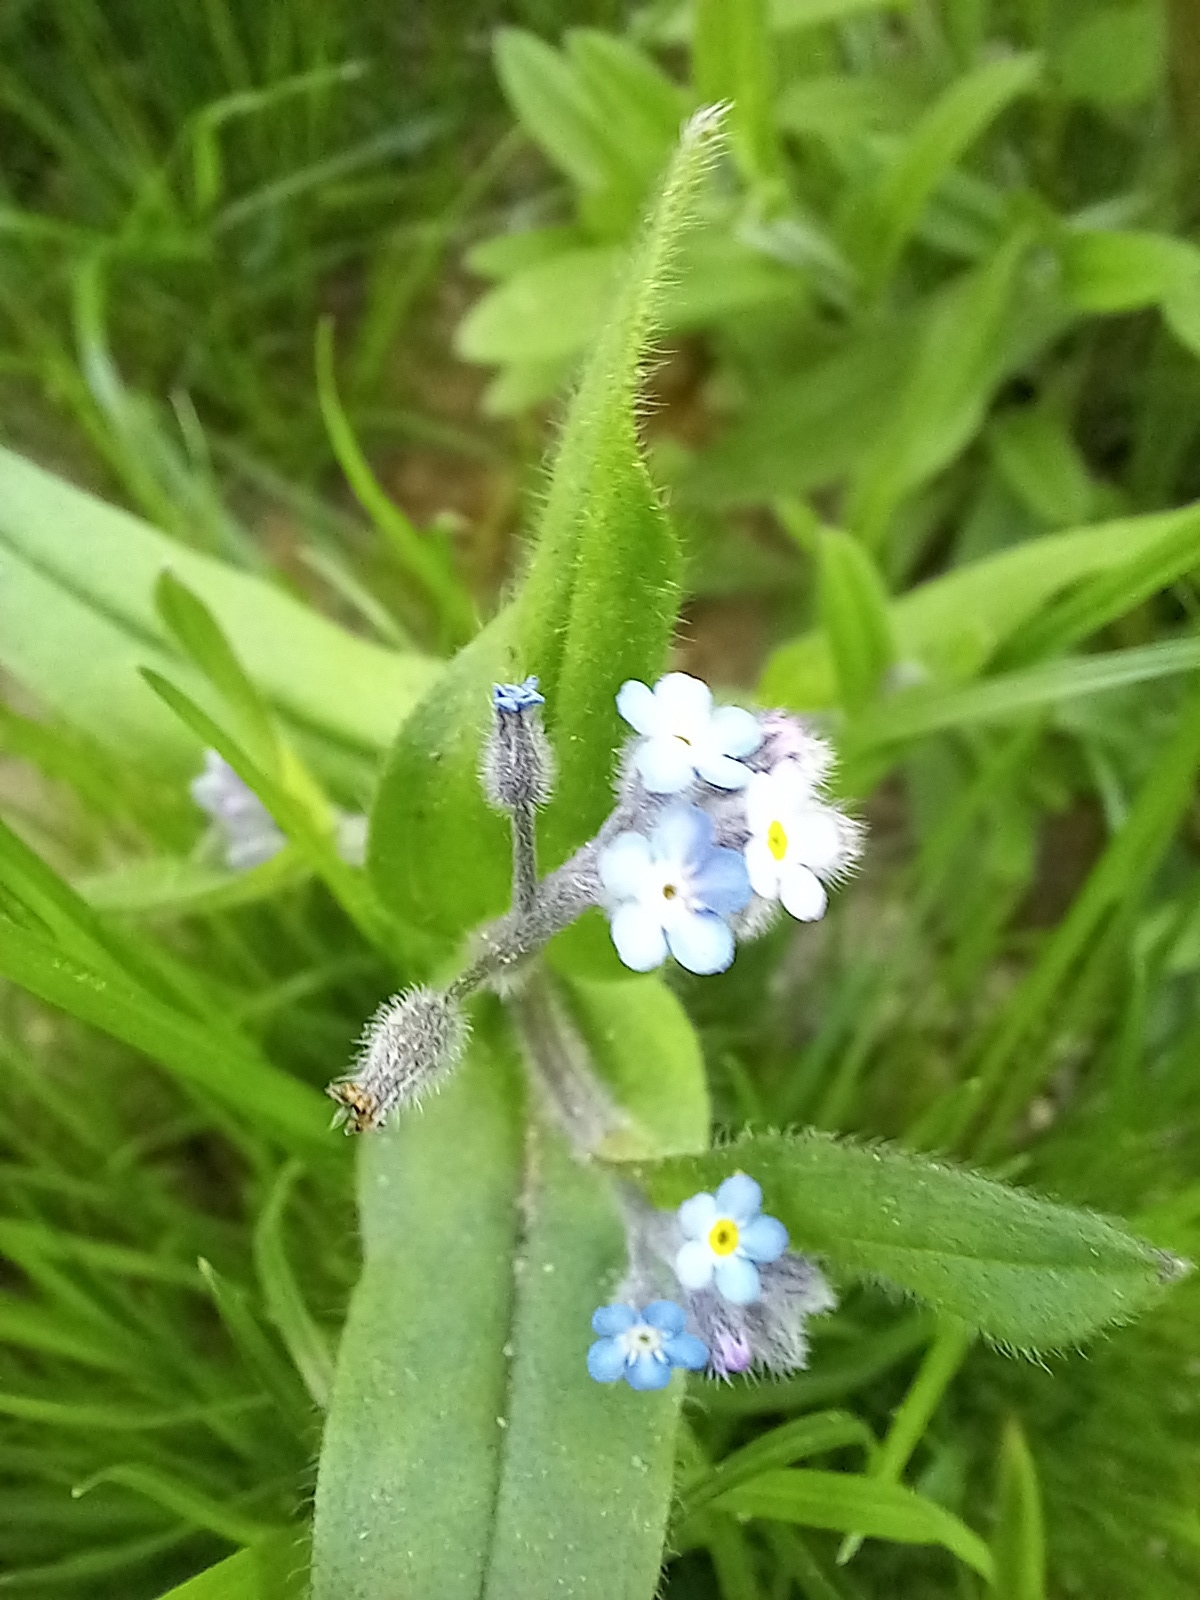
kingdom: Plantae
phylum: Tracheophyta
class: Magnoliopsida
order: Boraginales
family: Boraginaceae
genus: Myosotis
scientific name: Myosotis arvensis
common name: Field forget-me-not
